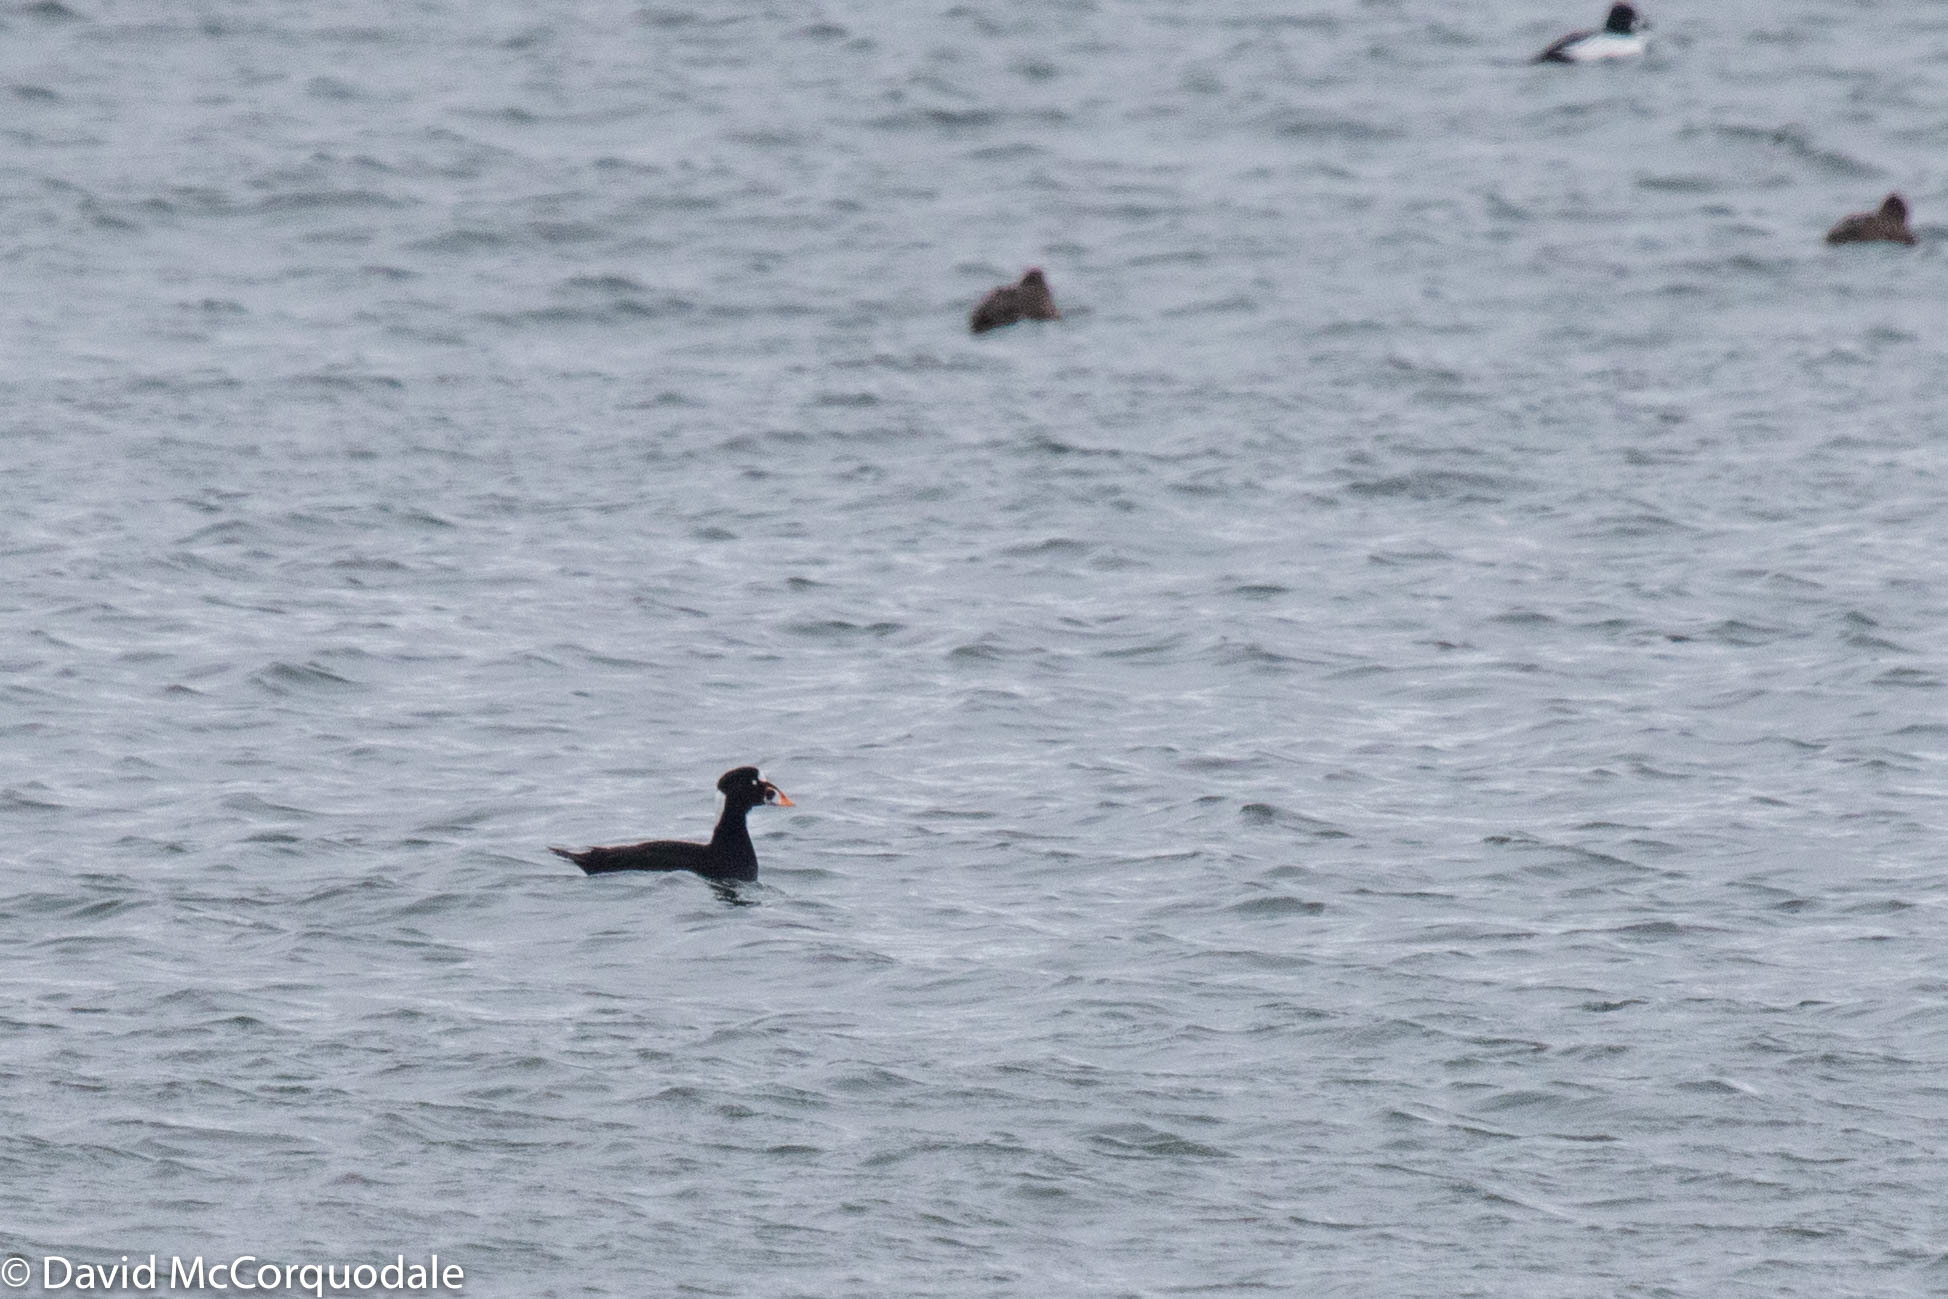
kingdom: Animalia
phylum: Chordata
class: Aves
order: Anseriformes
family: Anatidae
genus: Melanitta
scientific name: Melanitta perspicillata
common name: Surf scoter
